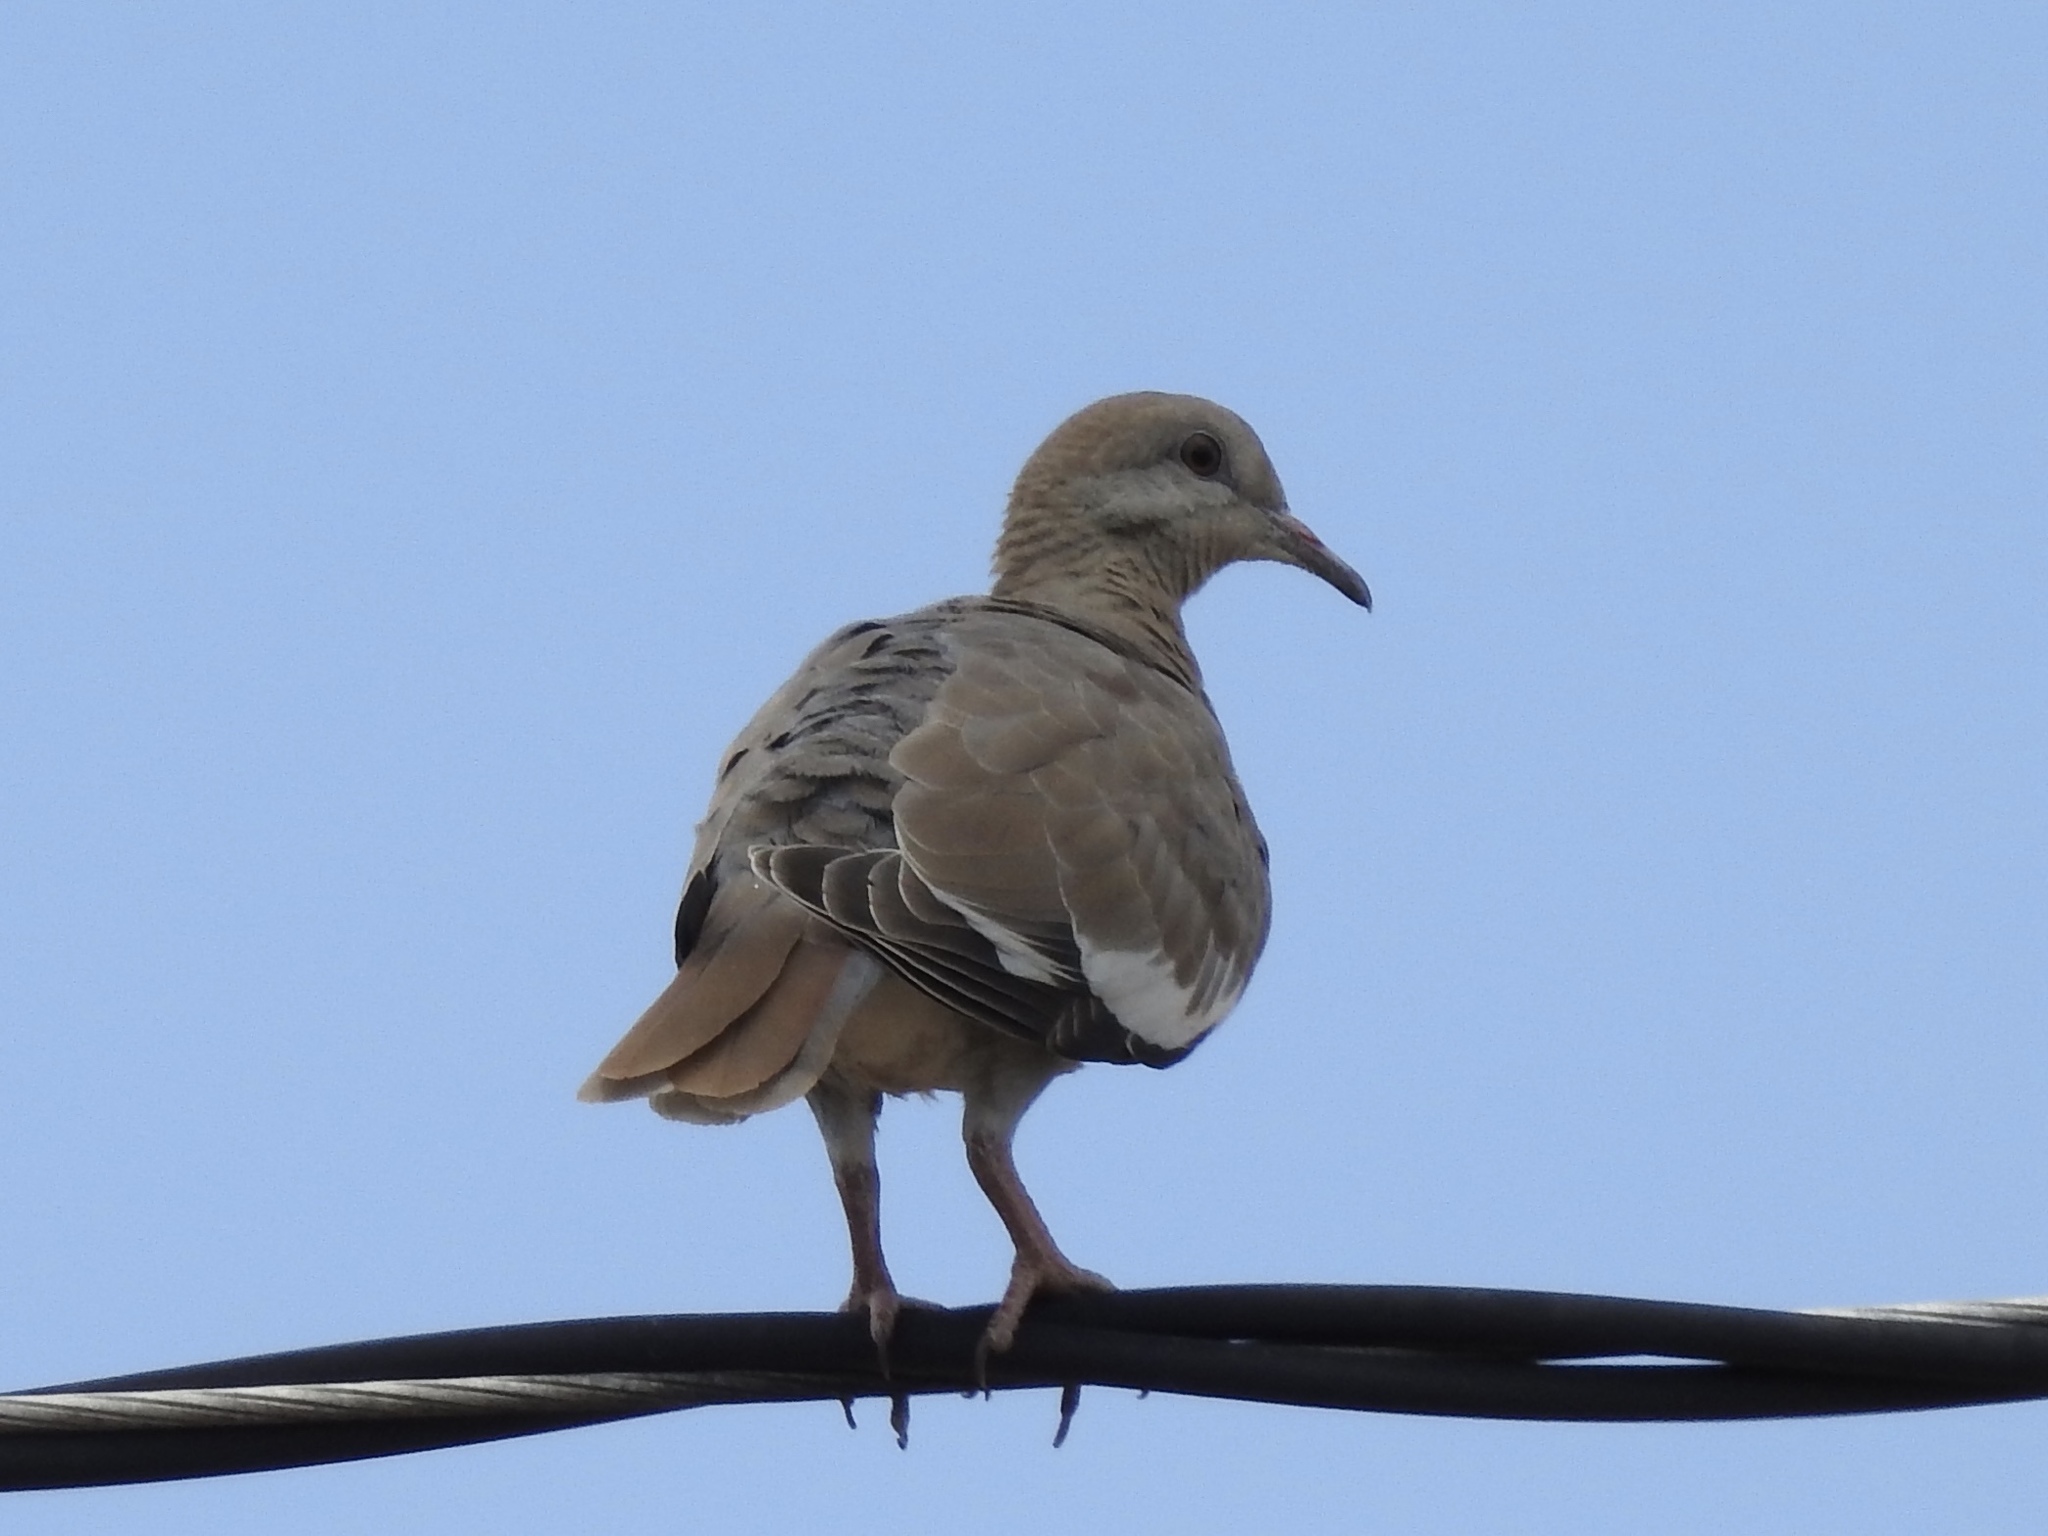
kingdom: Animalia
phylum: Chordata
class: Aves
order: Columbiformes
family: Columbidae
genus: Zenaida
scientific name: Zenaida asiatica
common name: White-winged dove
